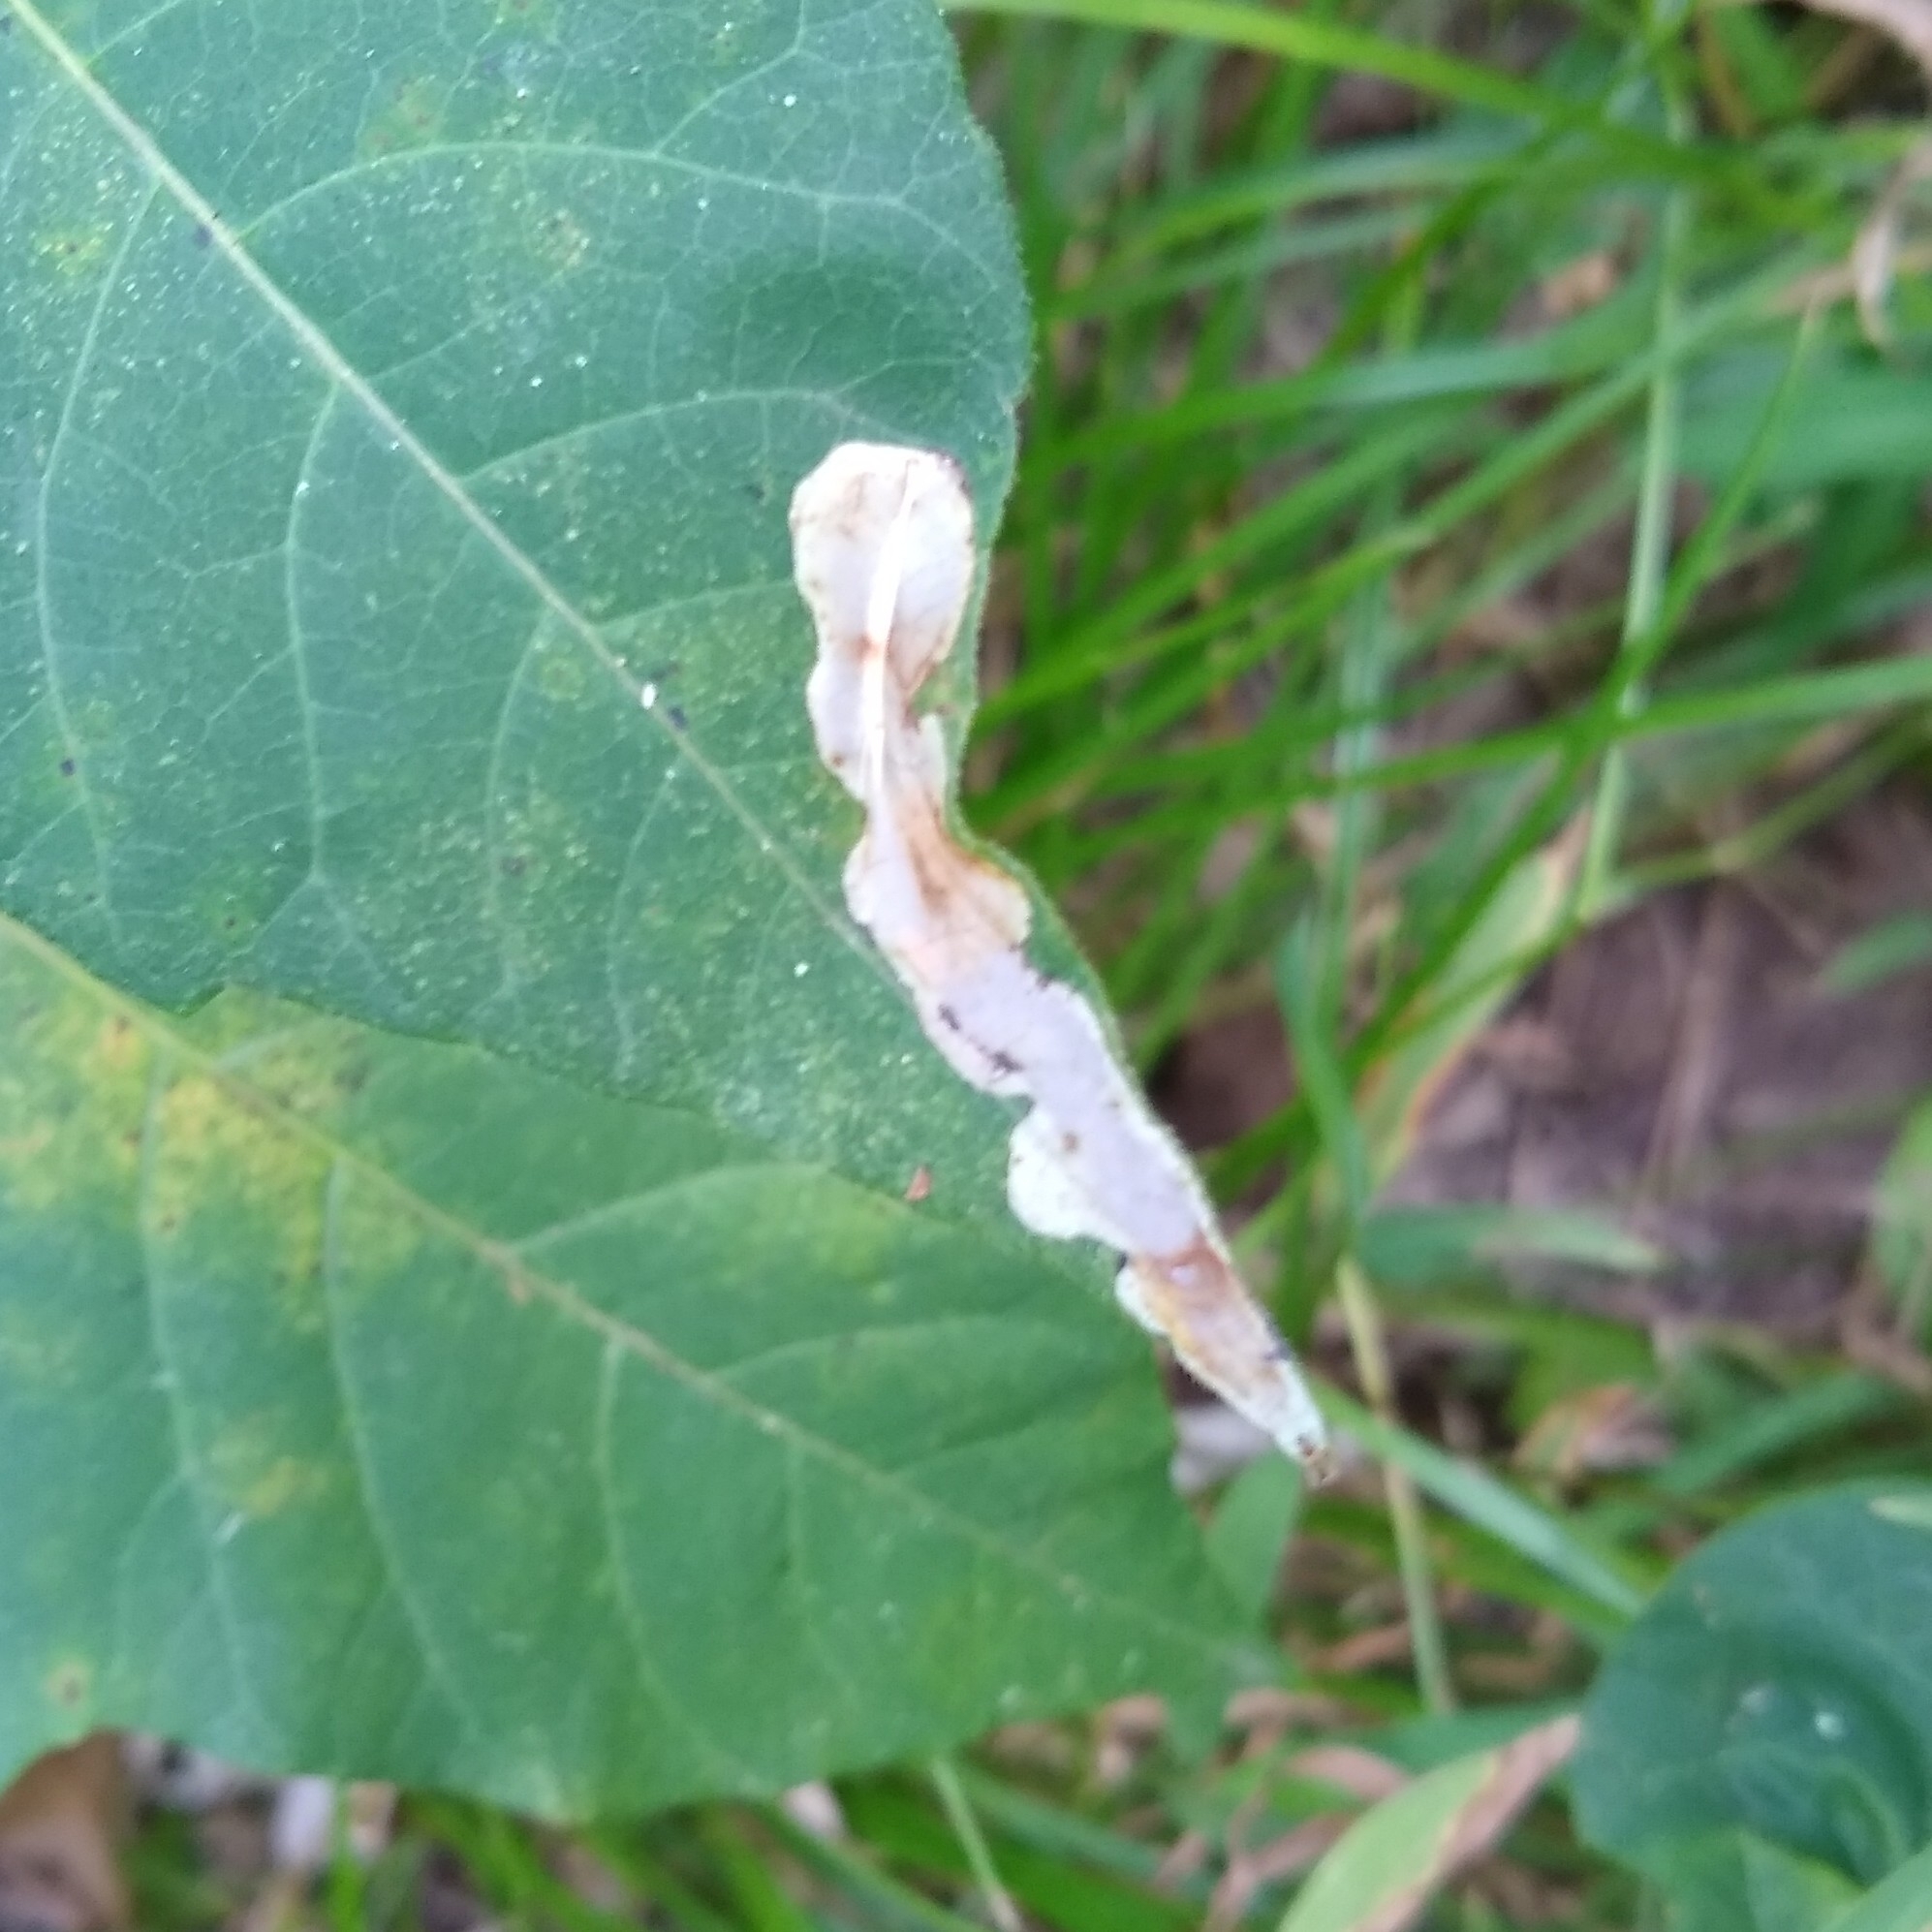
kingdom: Animalia
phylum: Arthropoda
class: Insecta
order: Lepidoptera
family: Gracillariidae
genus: Cameraria
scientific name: Cameraria guttifinitella
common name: Poison ivy leaf-miner moth
